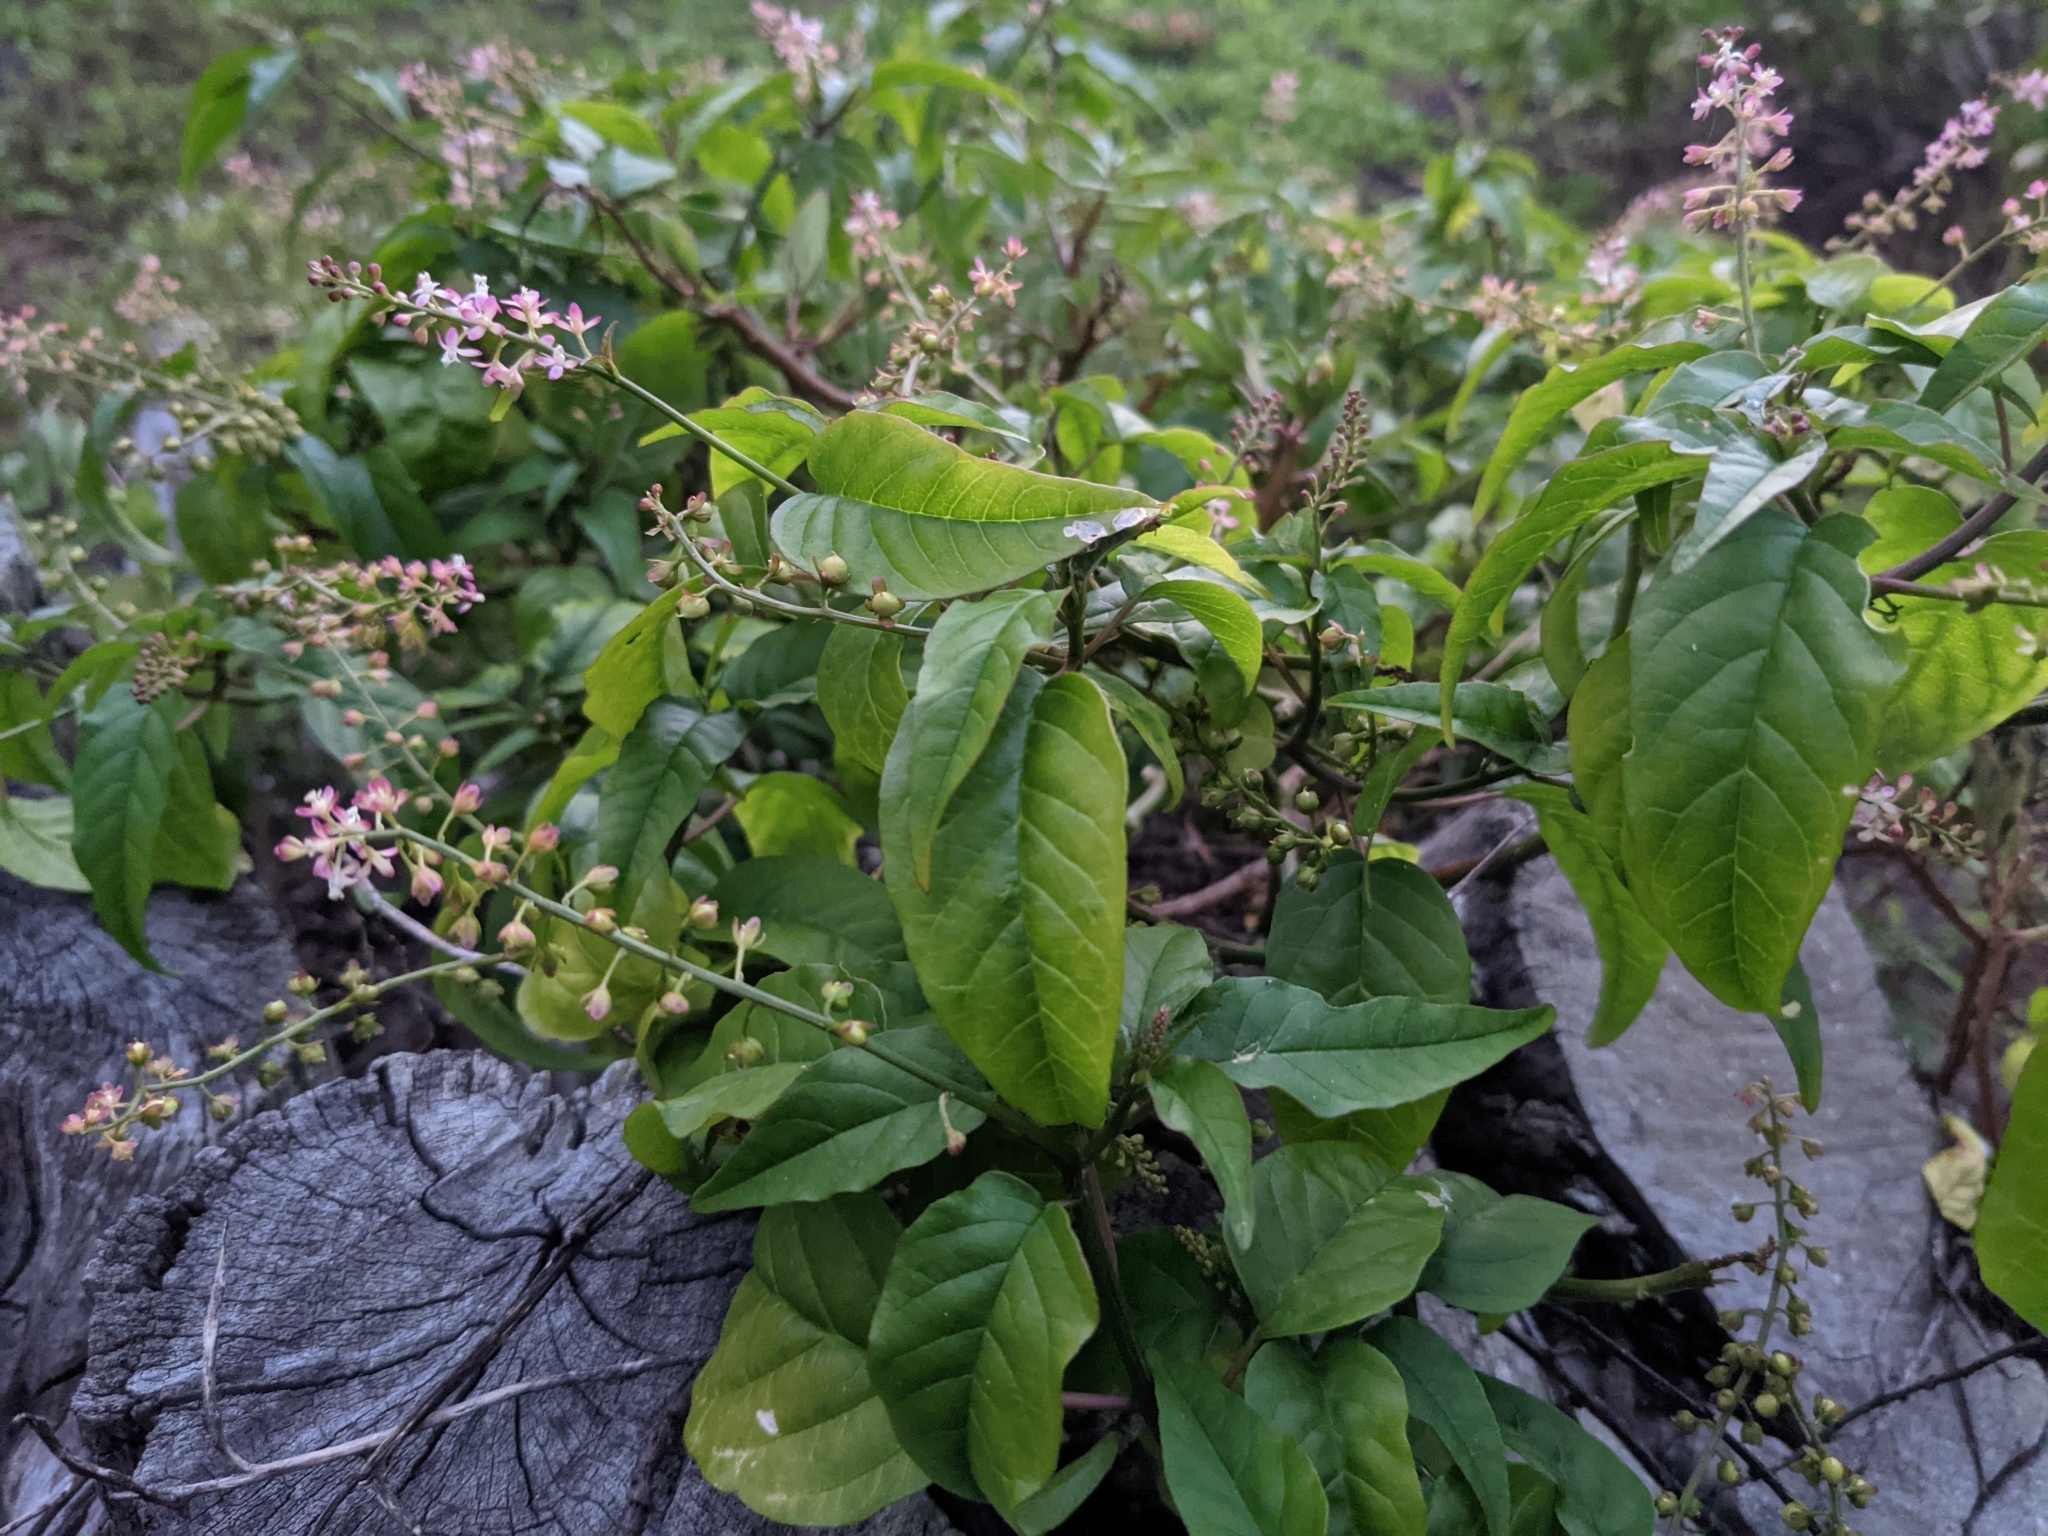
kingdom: Plantae
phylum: Tracheophyta
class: Magnoliopsida
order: Caryophyllales
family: Phytolaccaceae
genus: Rivina
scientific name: Rivina humilis
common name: Rougeplant
